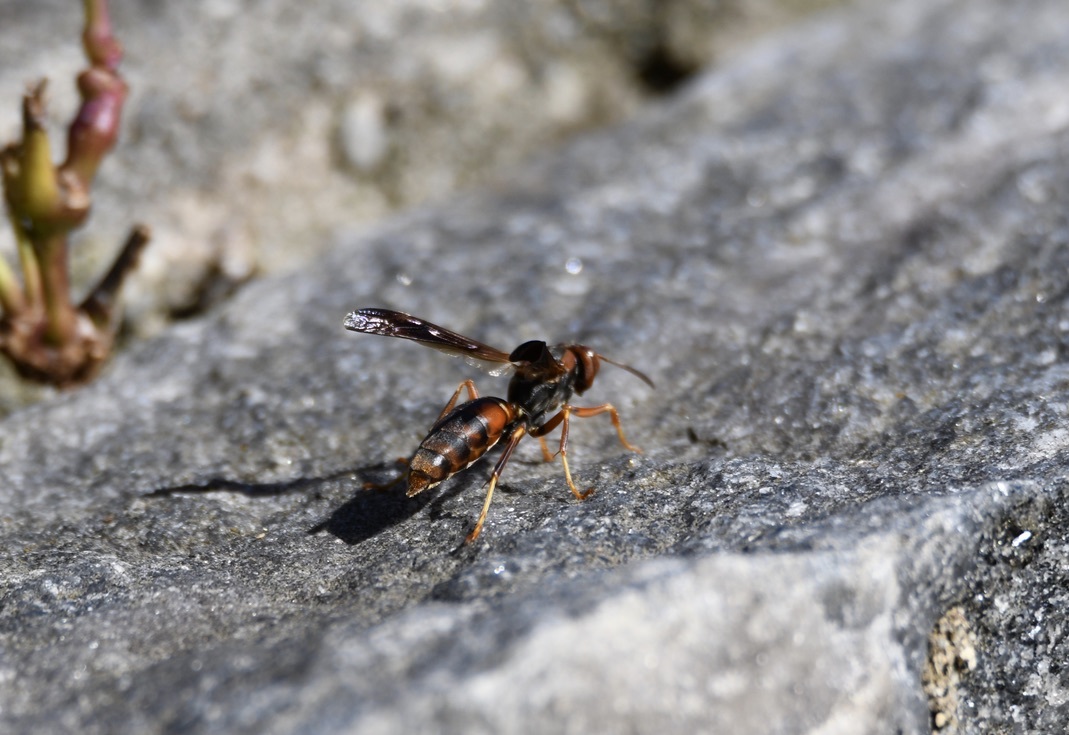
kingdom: Animalia
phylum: Arthropoda
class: Insecta
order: Hymenoptera
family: Eumenidae
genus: Polistes
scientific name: Polistes fuscatus
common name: Dark paper wasp
